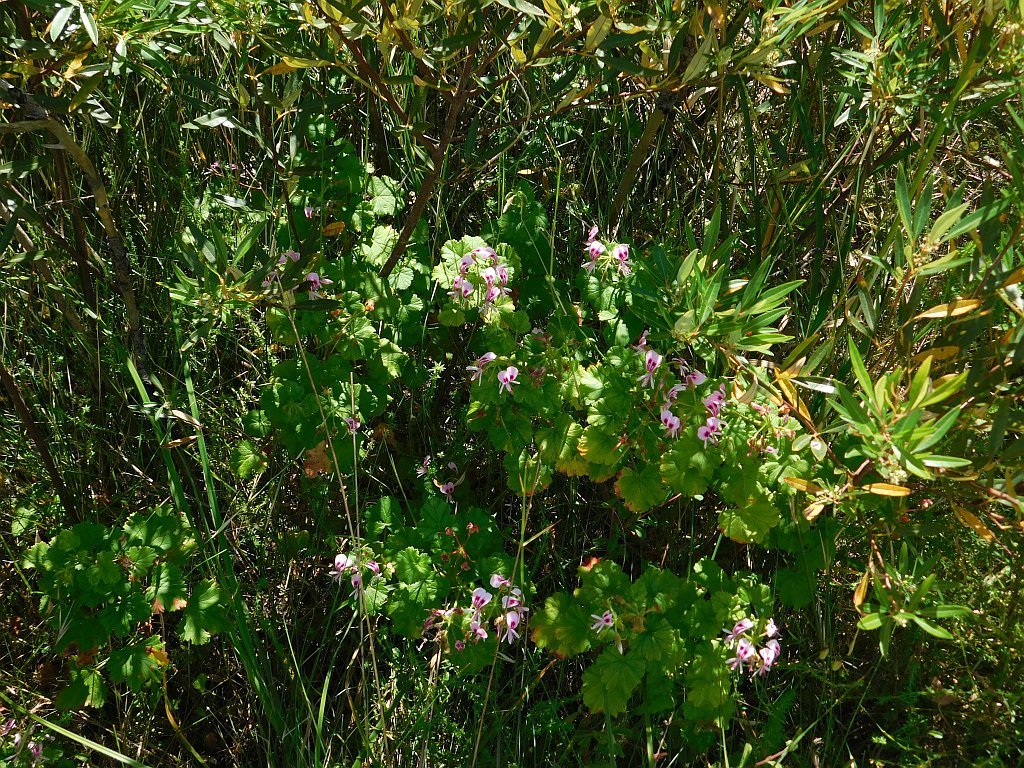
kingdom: Plantae
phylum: Tracheophyta
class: Magnoliopsida
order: Geraniales
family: Geraniaceae
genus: Pelargonium
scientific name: Pelargonium greytonense
